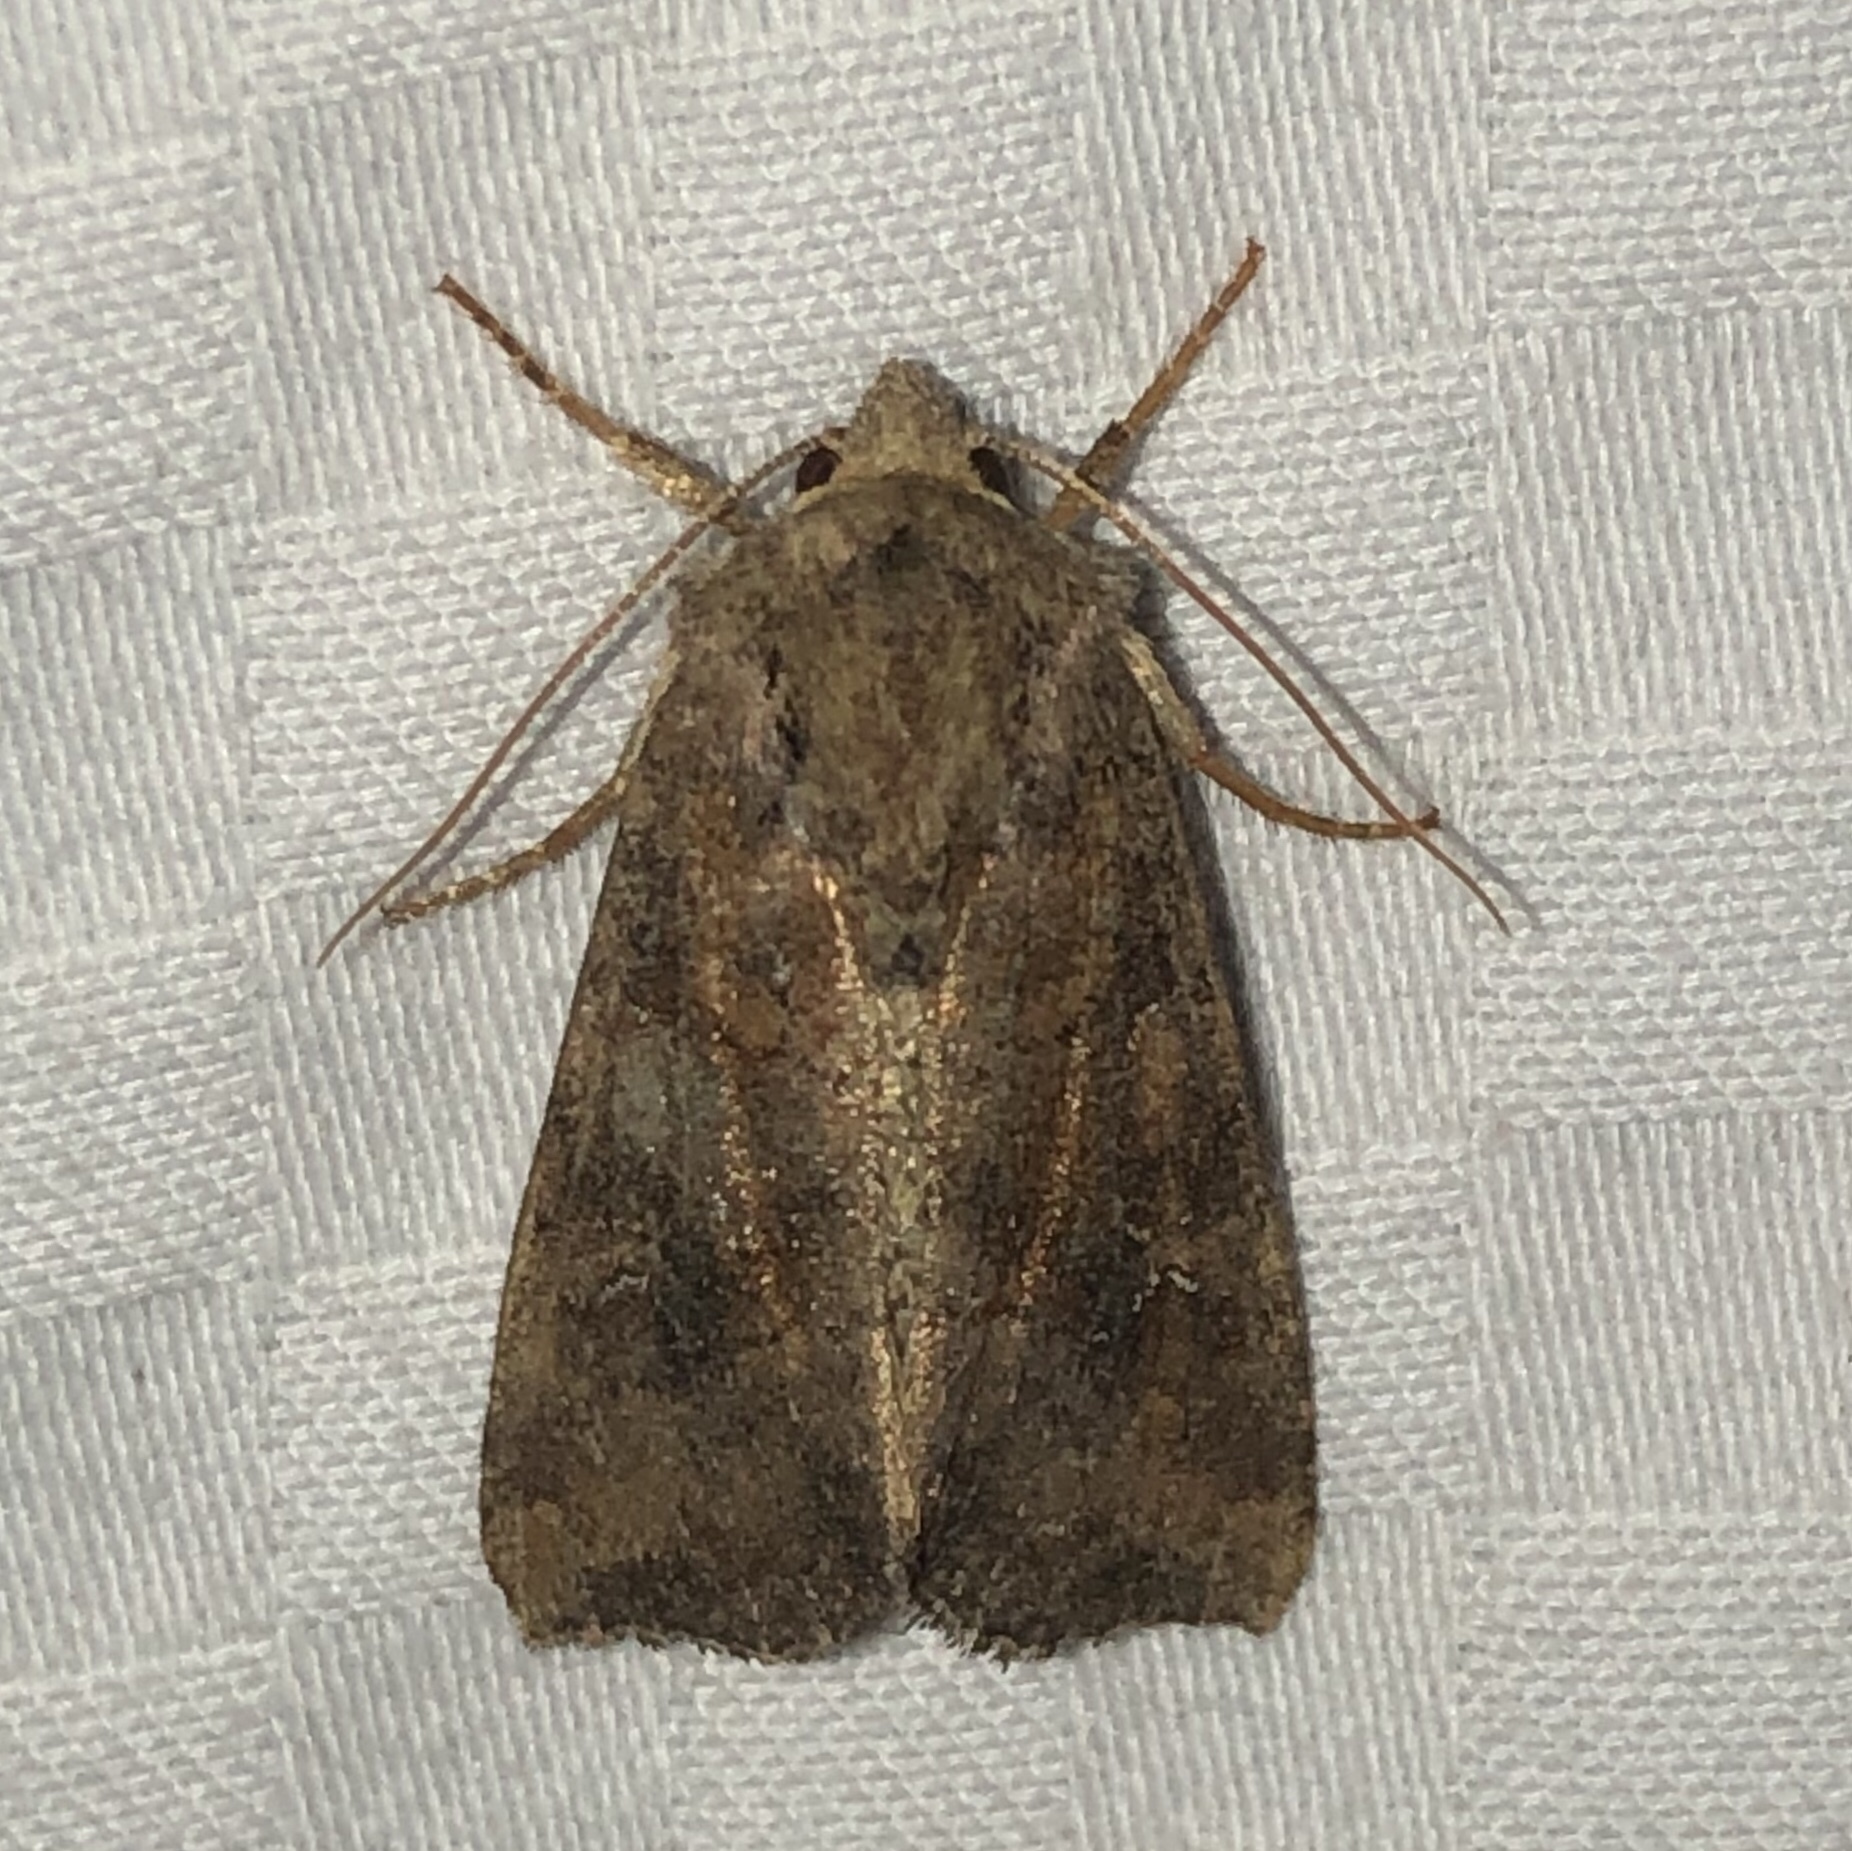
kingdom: Animalia
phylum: Arthropoda
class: Insecta
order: Lepidoptera
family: Noctuidae
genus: Loscopia
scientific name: Loscopia velata
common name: Veiled ear moth
